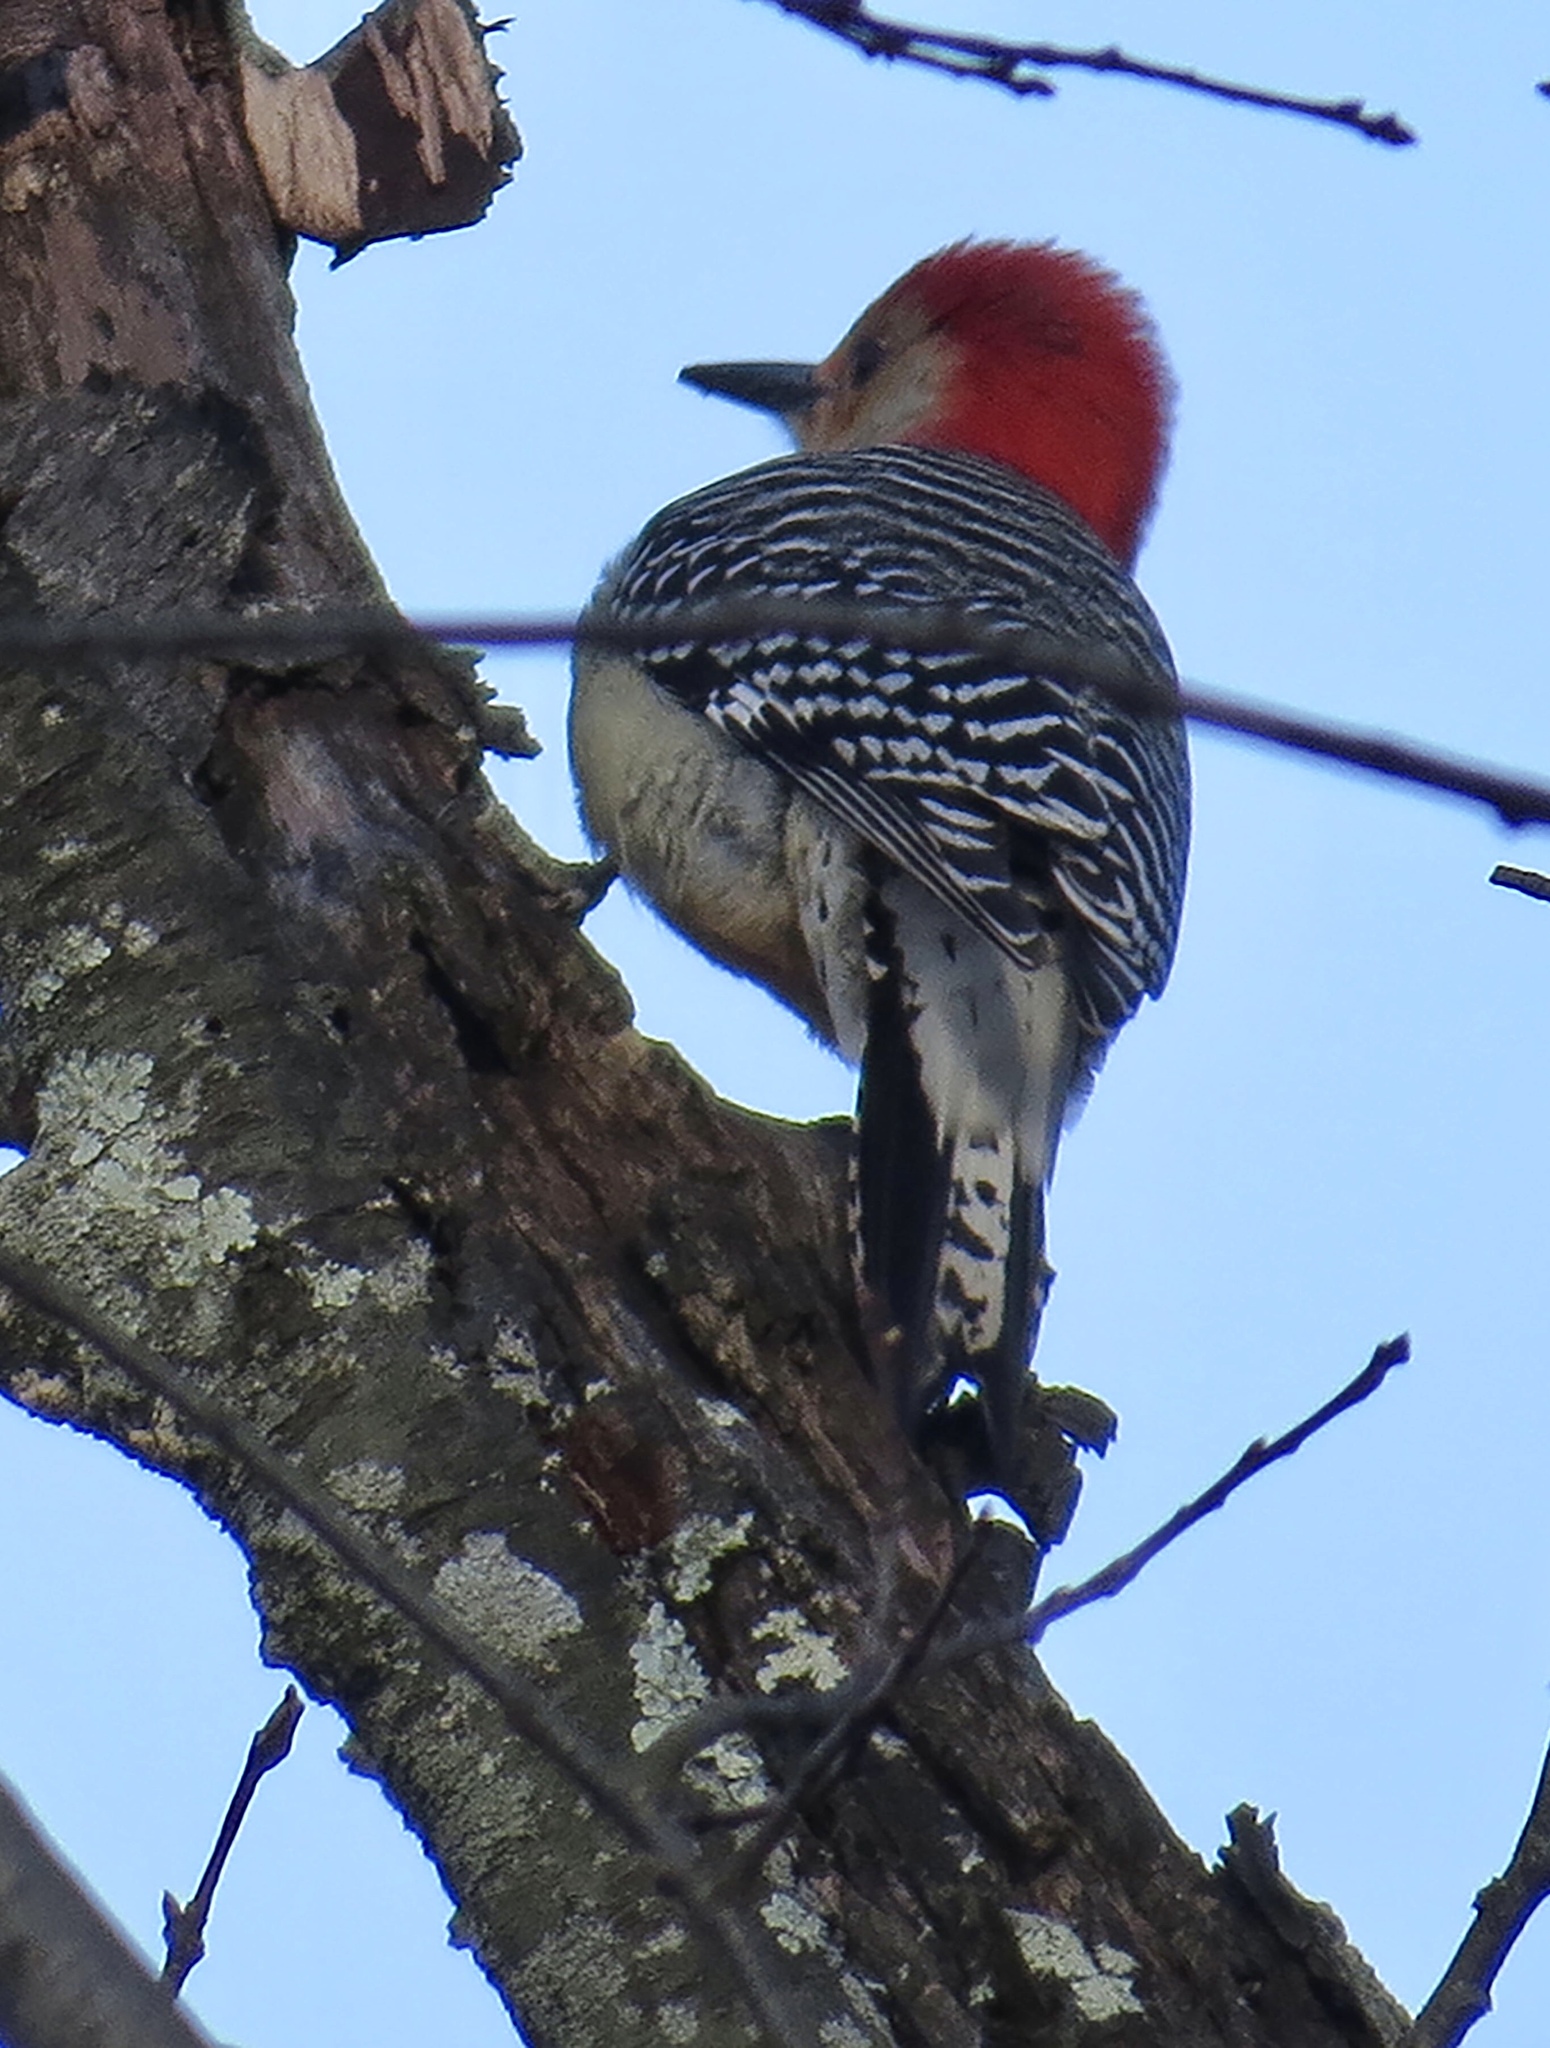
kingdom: Animalia
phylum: Chordata
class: Aves
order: Piciformes
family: Picidae
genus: Melanerpes
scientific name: Melanerpes carolinus
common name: Red-bellied woodpecker
